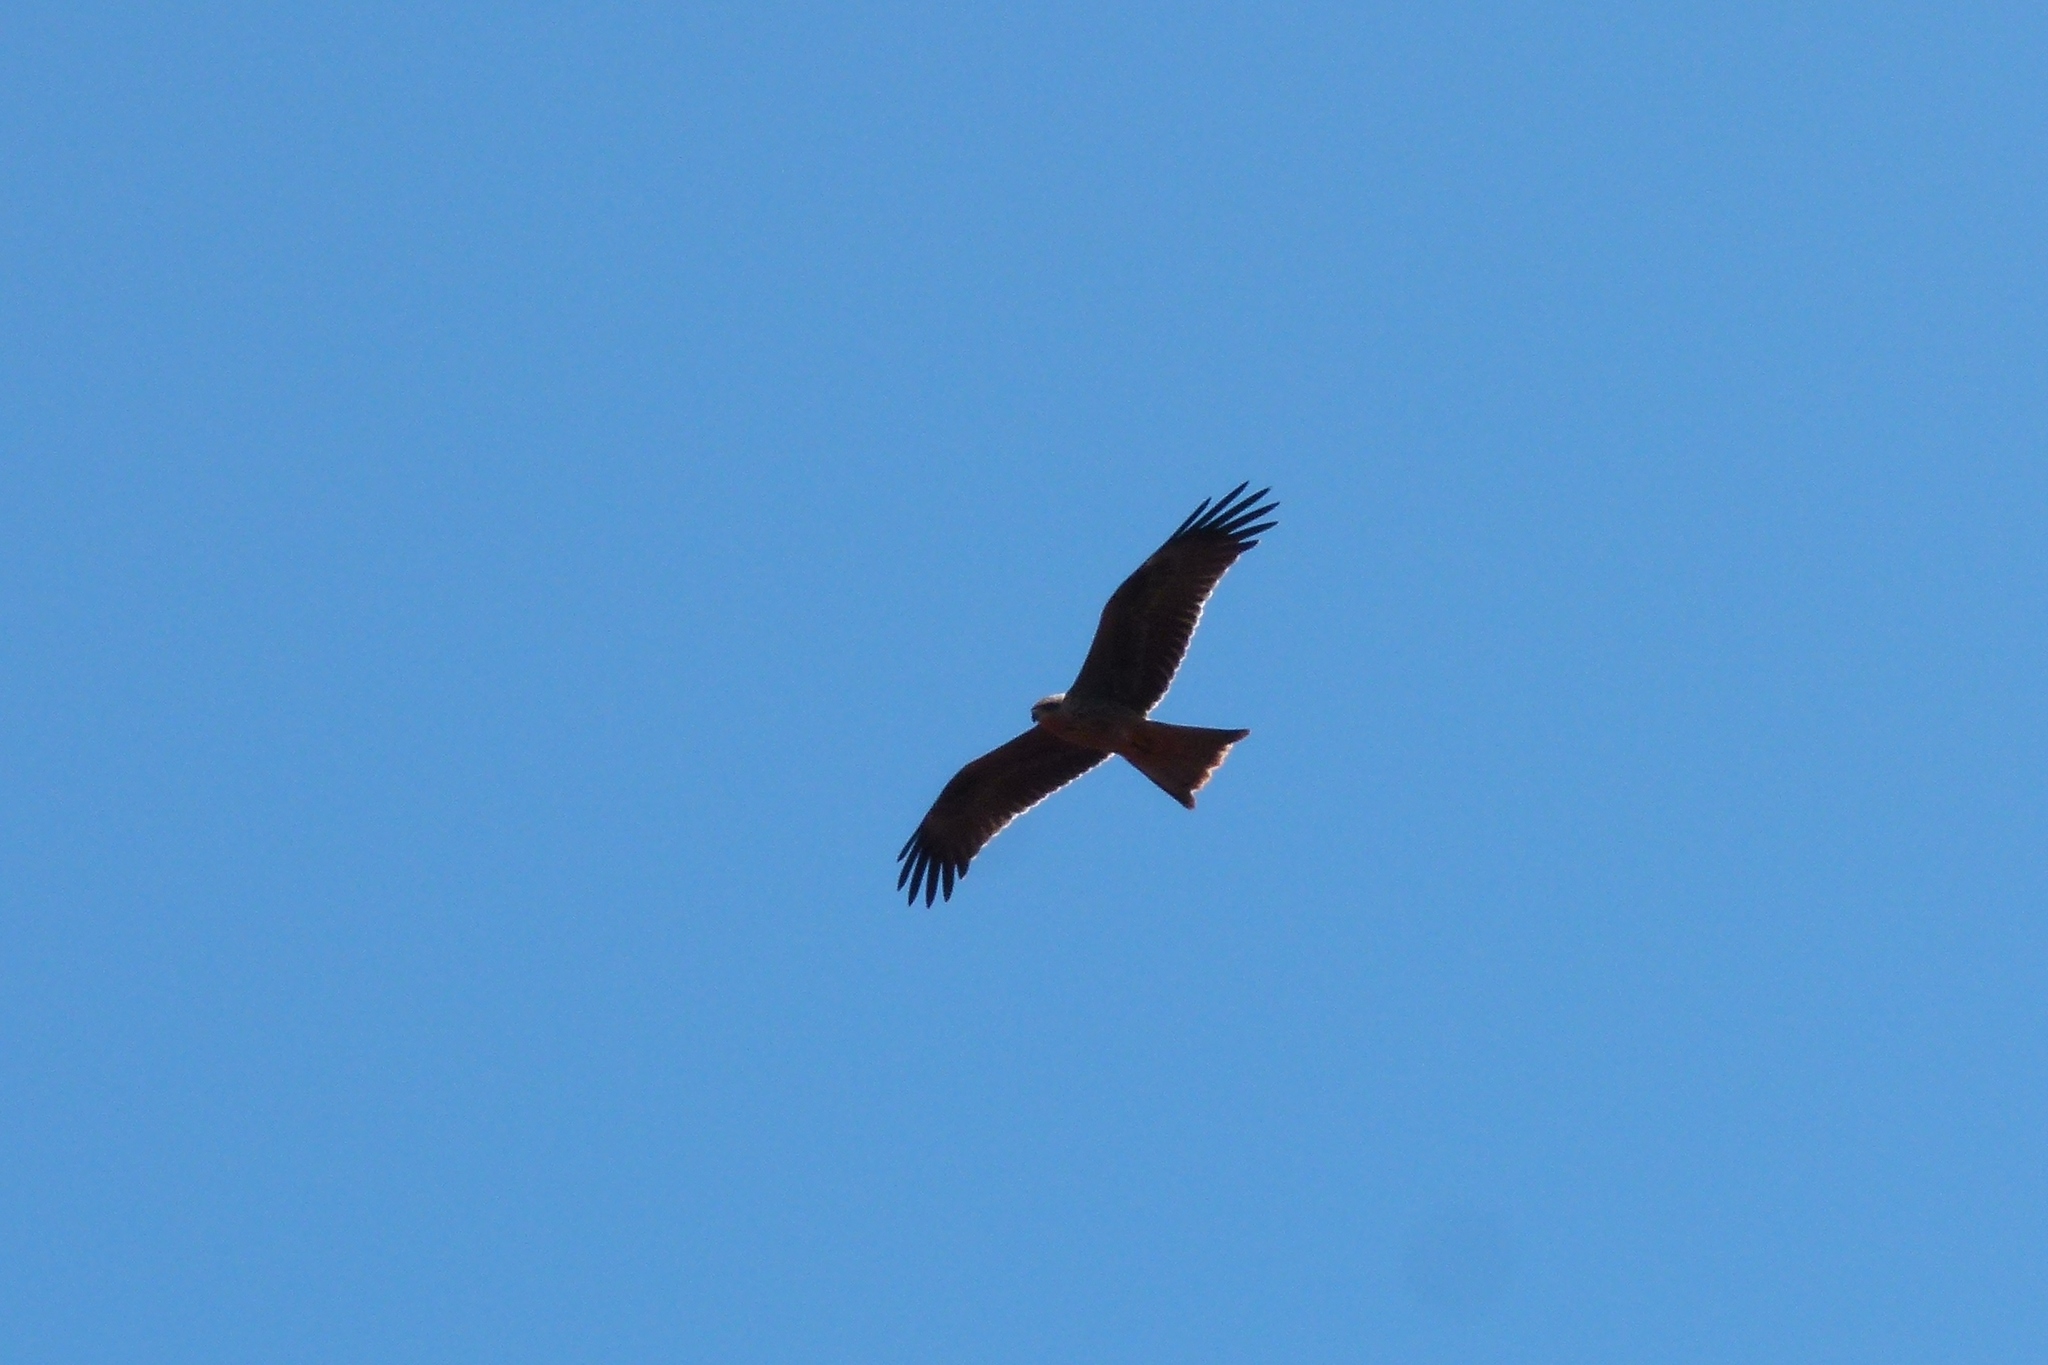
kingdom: Animalia
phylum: Chordata
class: Aves
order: Accipitriformes
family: Accipitridae
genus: Milvus
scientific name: Milvus migrans
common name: Black kite
